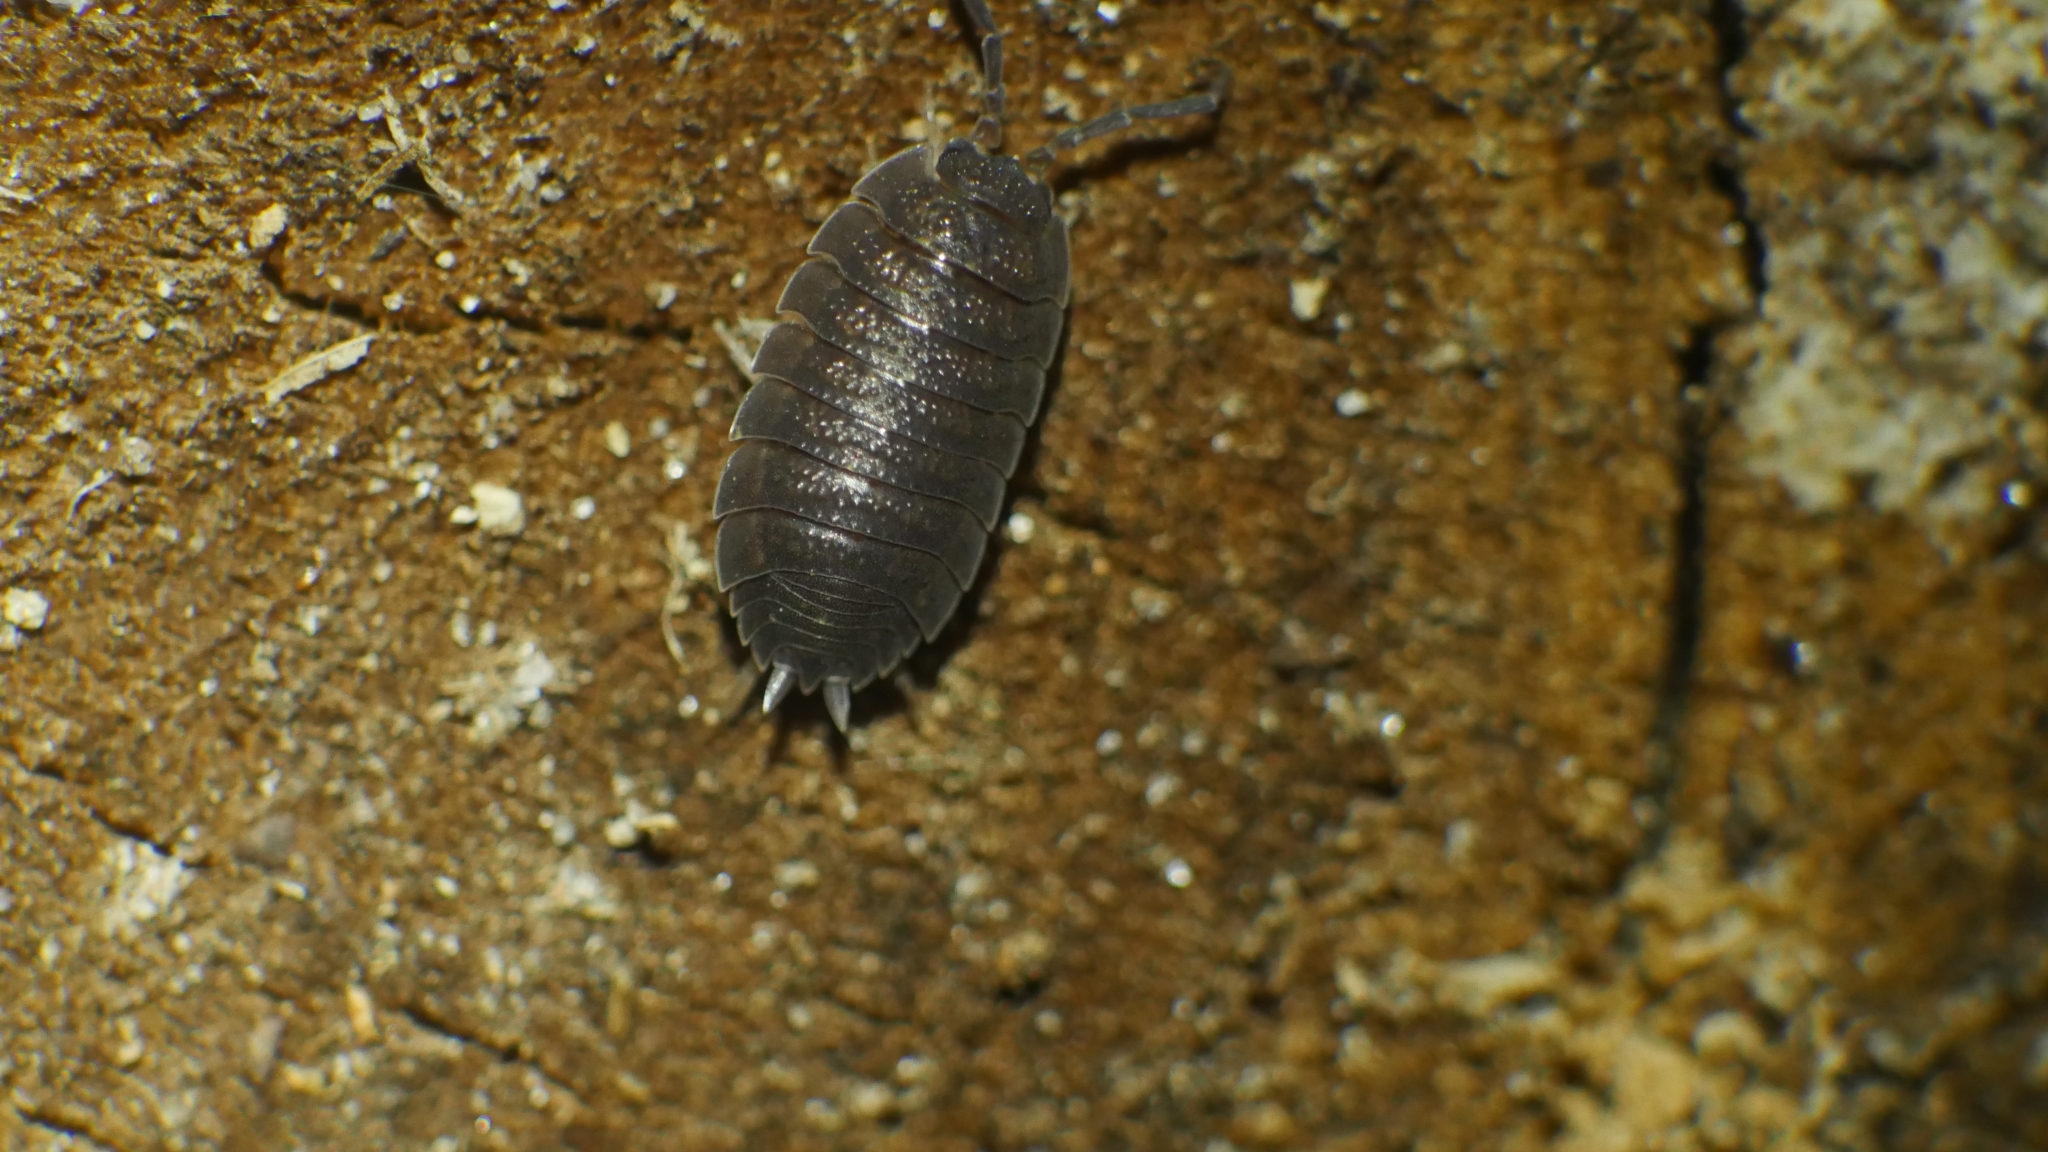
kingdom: Animalia
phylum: Arthropoda
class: Malacostraca
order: Isopoda
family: Porcellionidae
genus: Porcellio
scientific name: Porcellio scaber
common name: Common rough woodlouse
